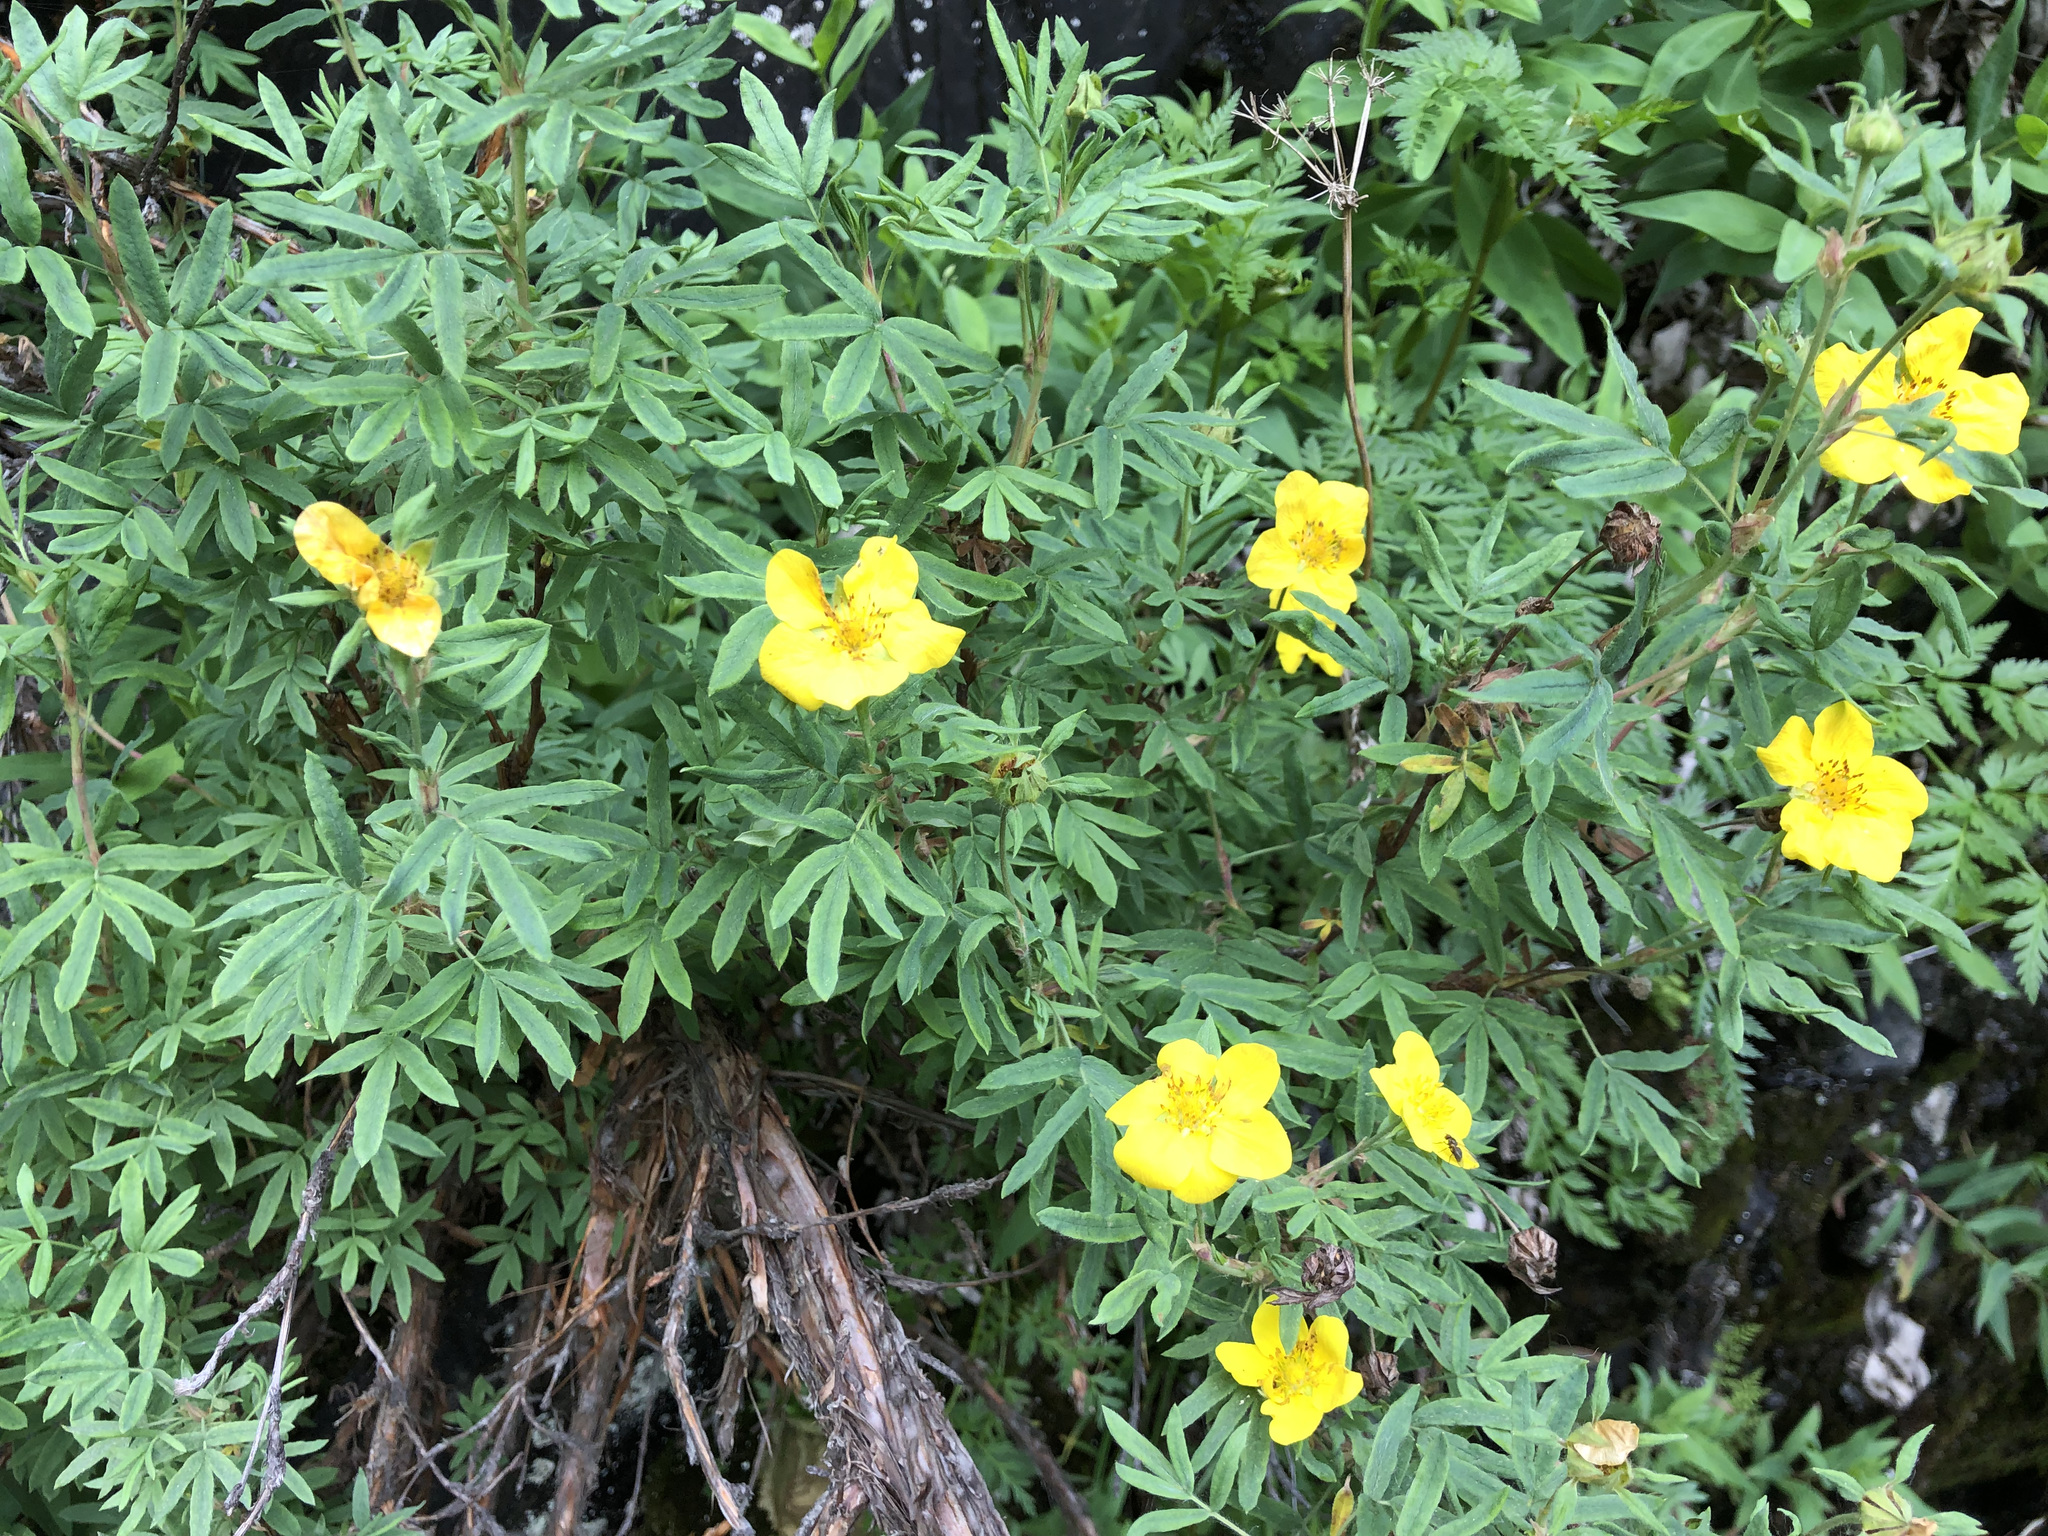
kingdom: Plantae
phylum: Tracheophyta
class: Magnoliopsida
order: Rosales
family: Rosaceae
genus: Dasiphora
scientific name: Dasiphora fruticosa
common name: Shrubby cinquefoil
